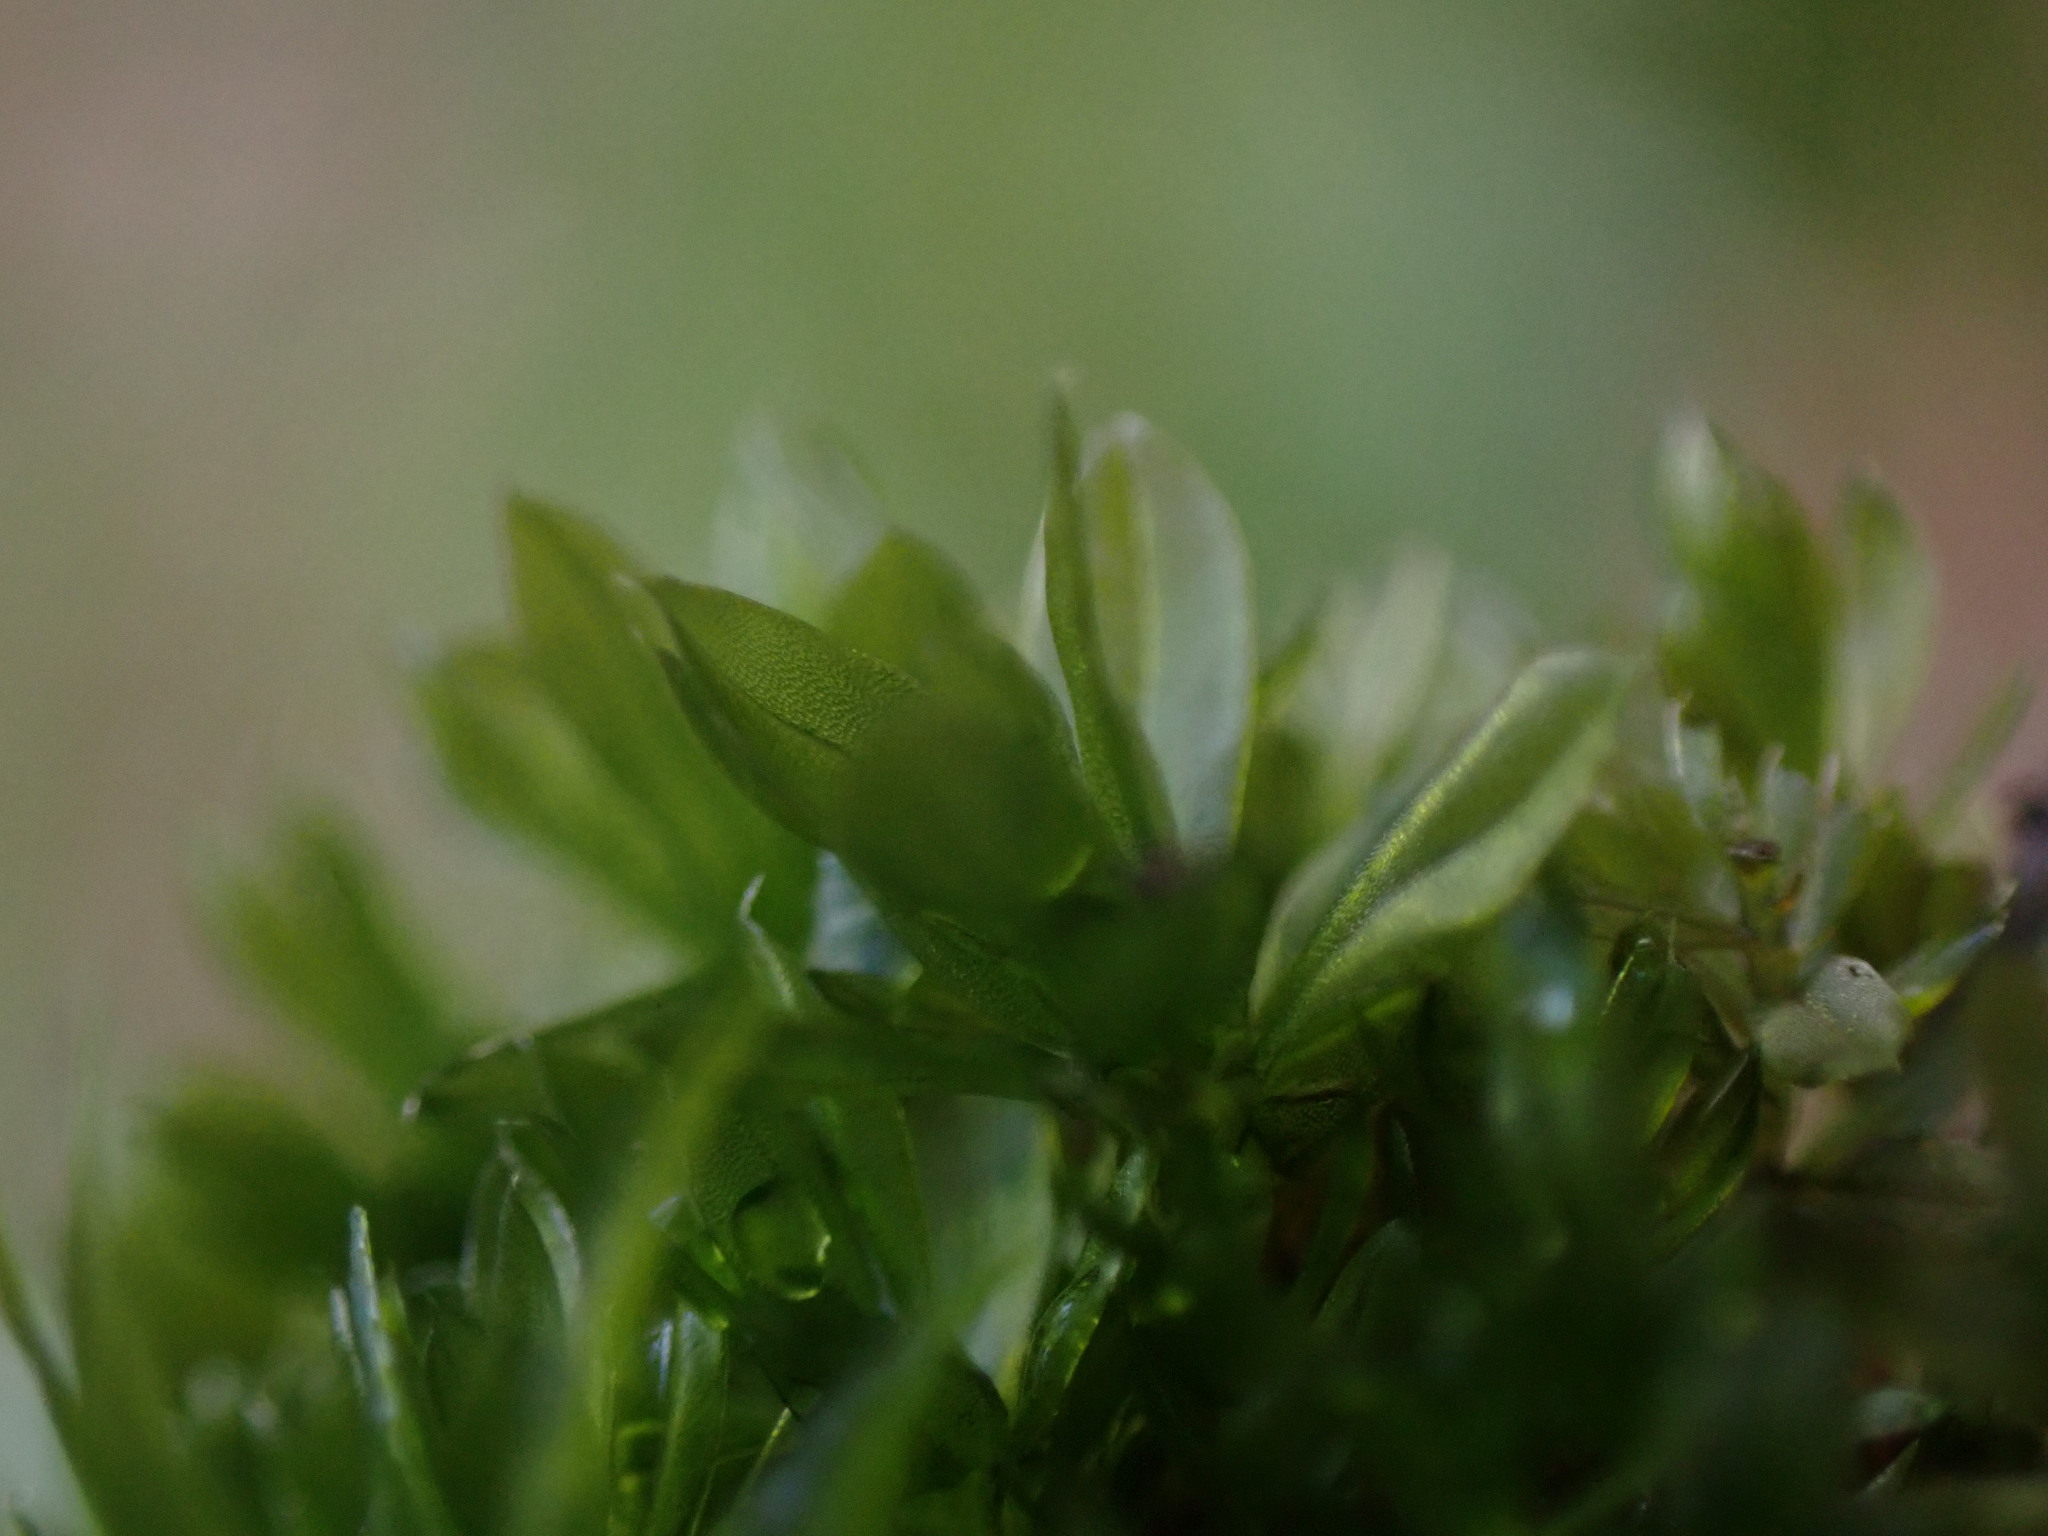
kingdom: Plantae
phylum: Bryophyta
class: Bryopsida
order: Bryales
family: Bryaceae
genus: Rosulabryum
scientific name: Rosulabryum canariense
